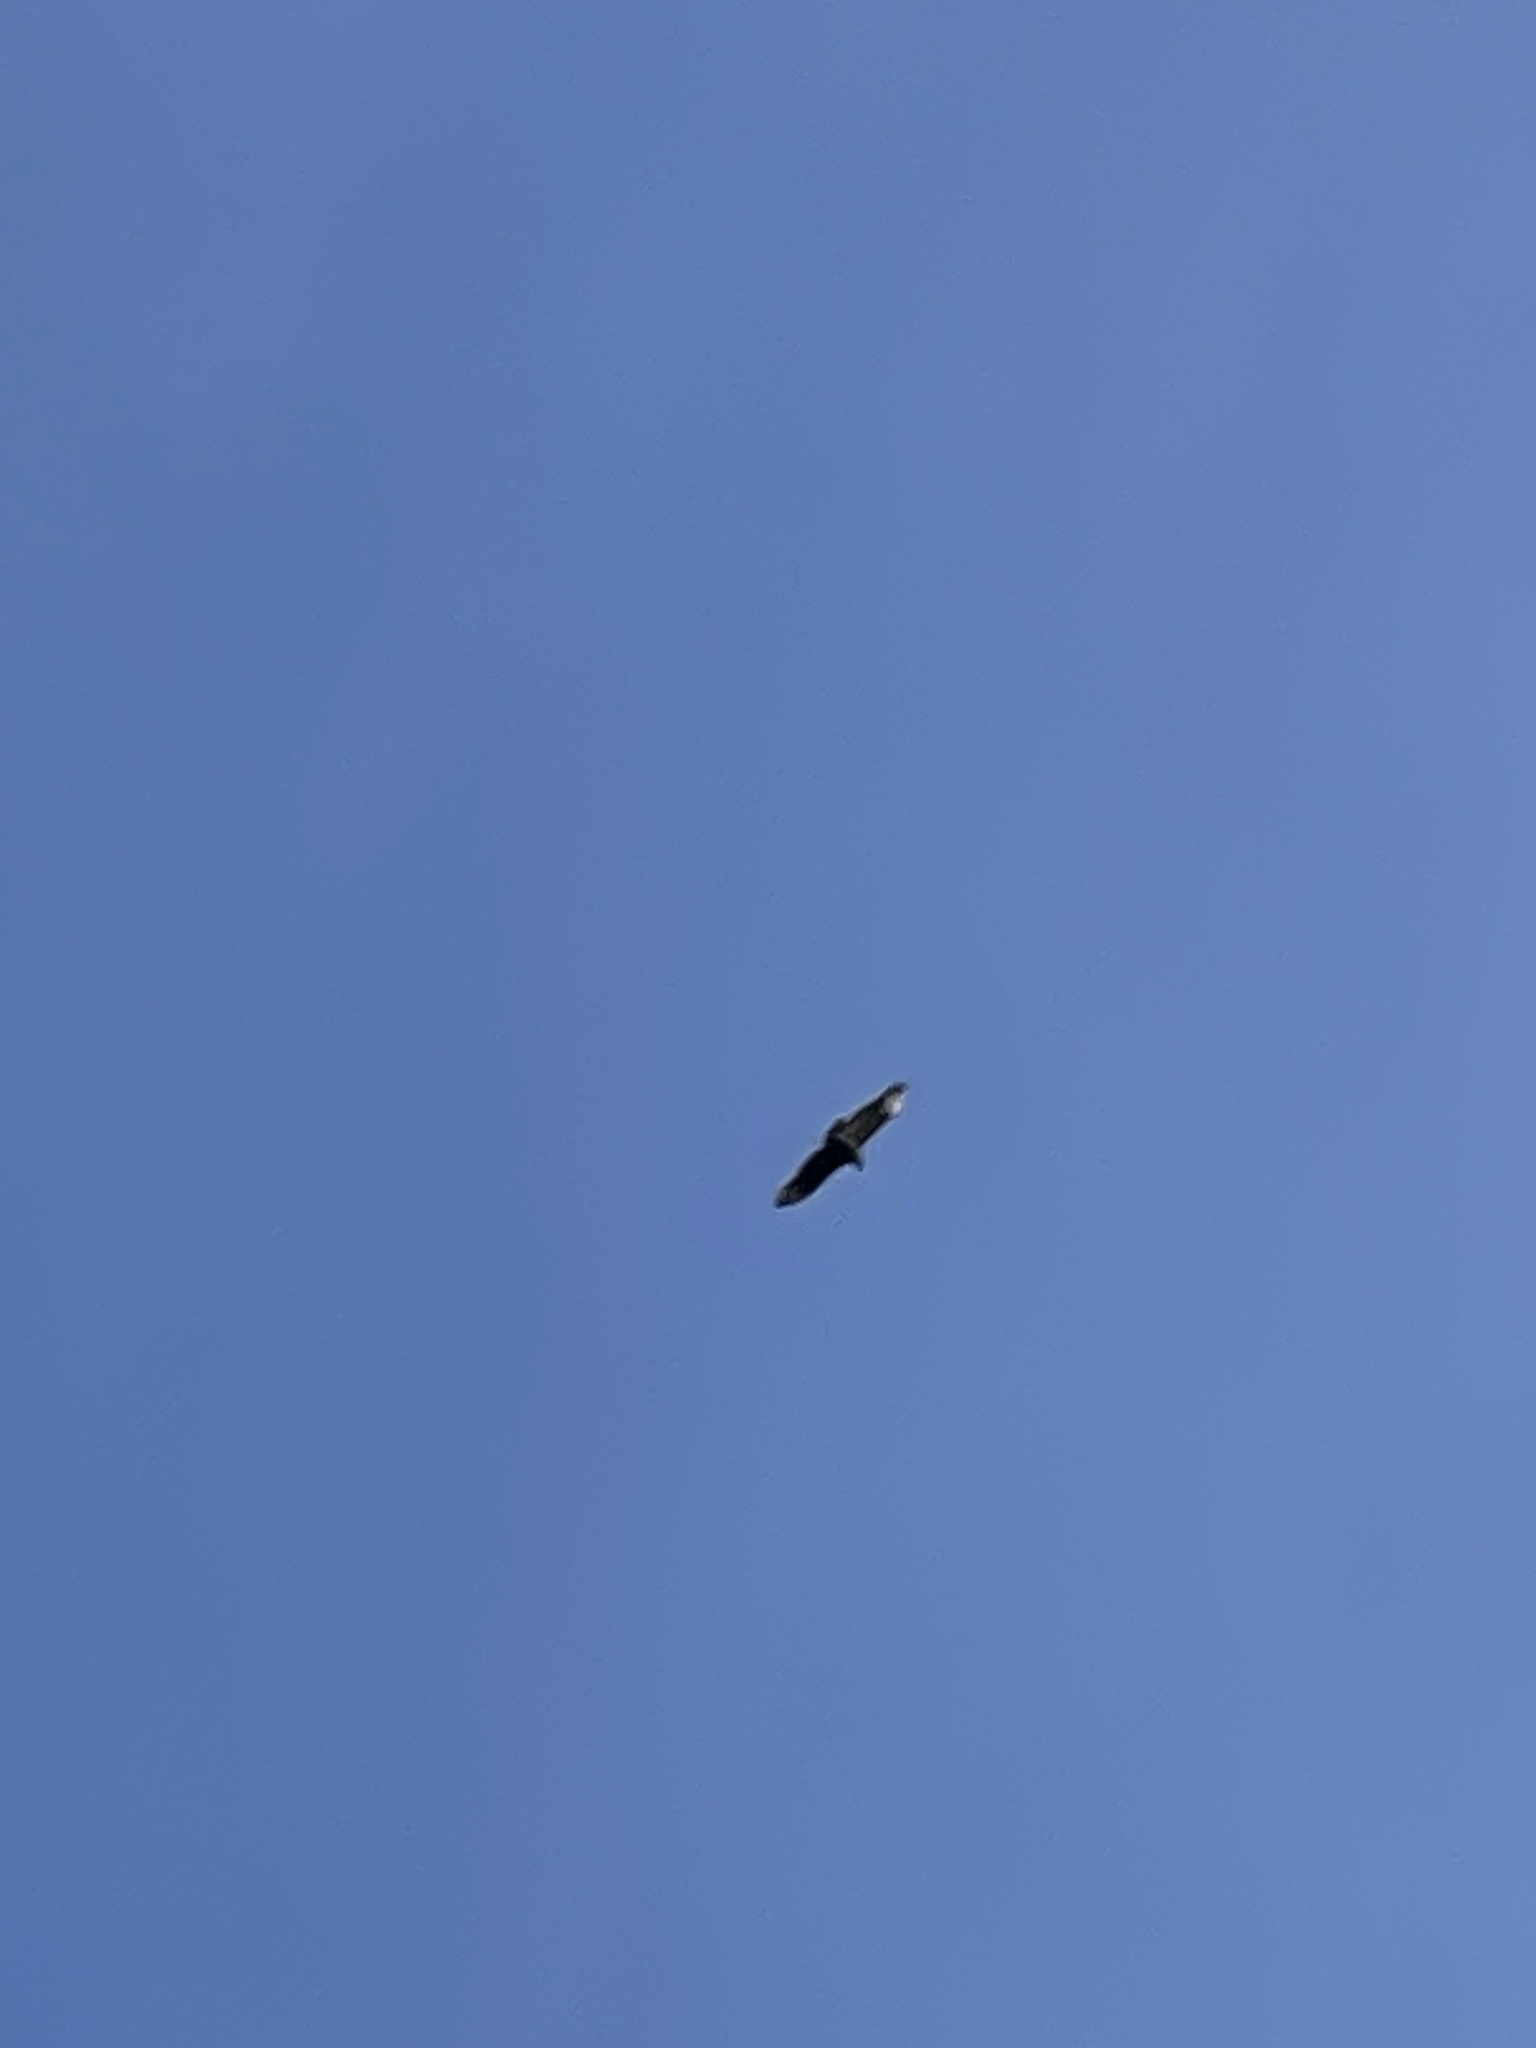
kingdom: Animalia
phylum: Chordata
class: Aves
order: Accipitriformes
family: Cathartidae
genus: Coragyps
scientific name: Coragyps atratus
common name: Black vulture
